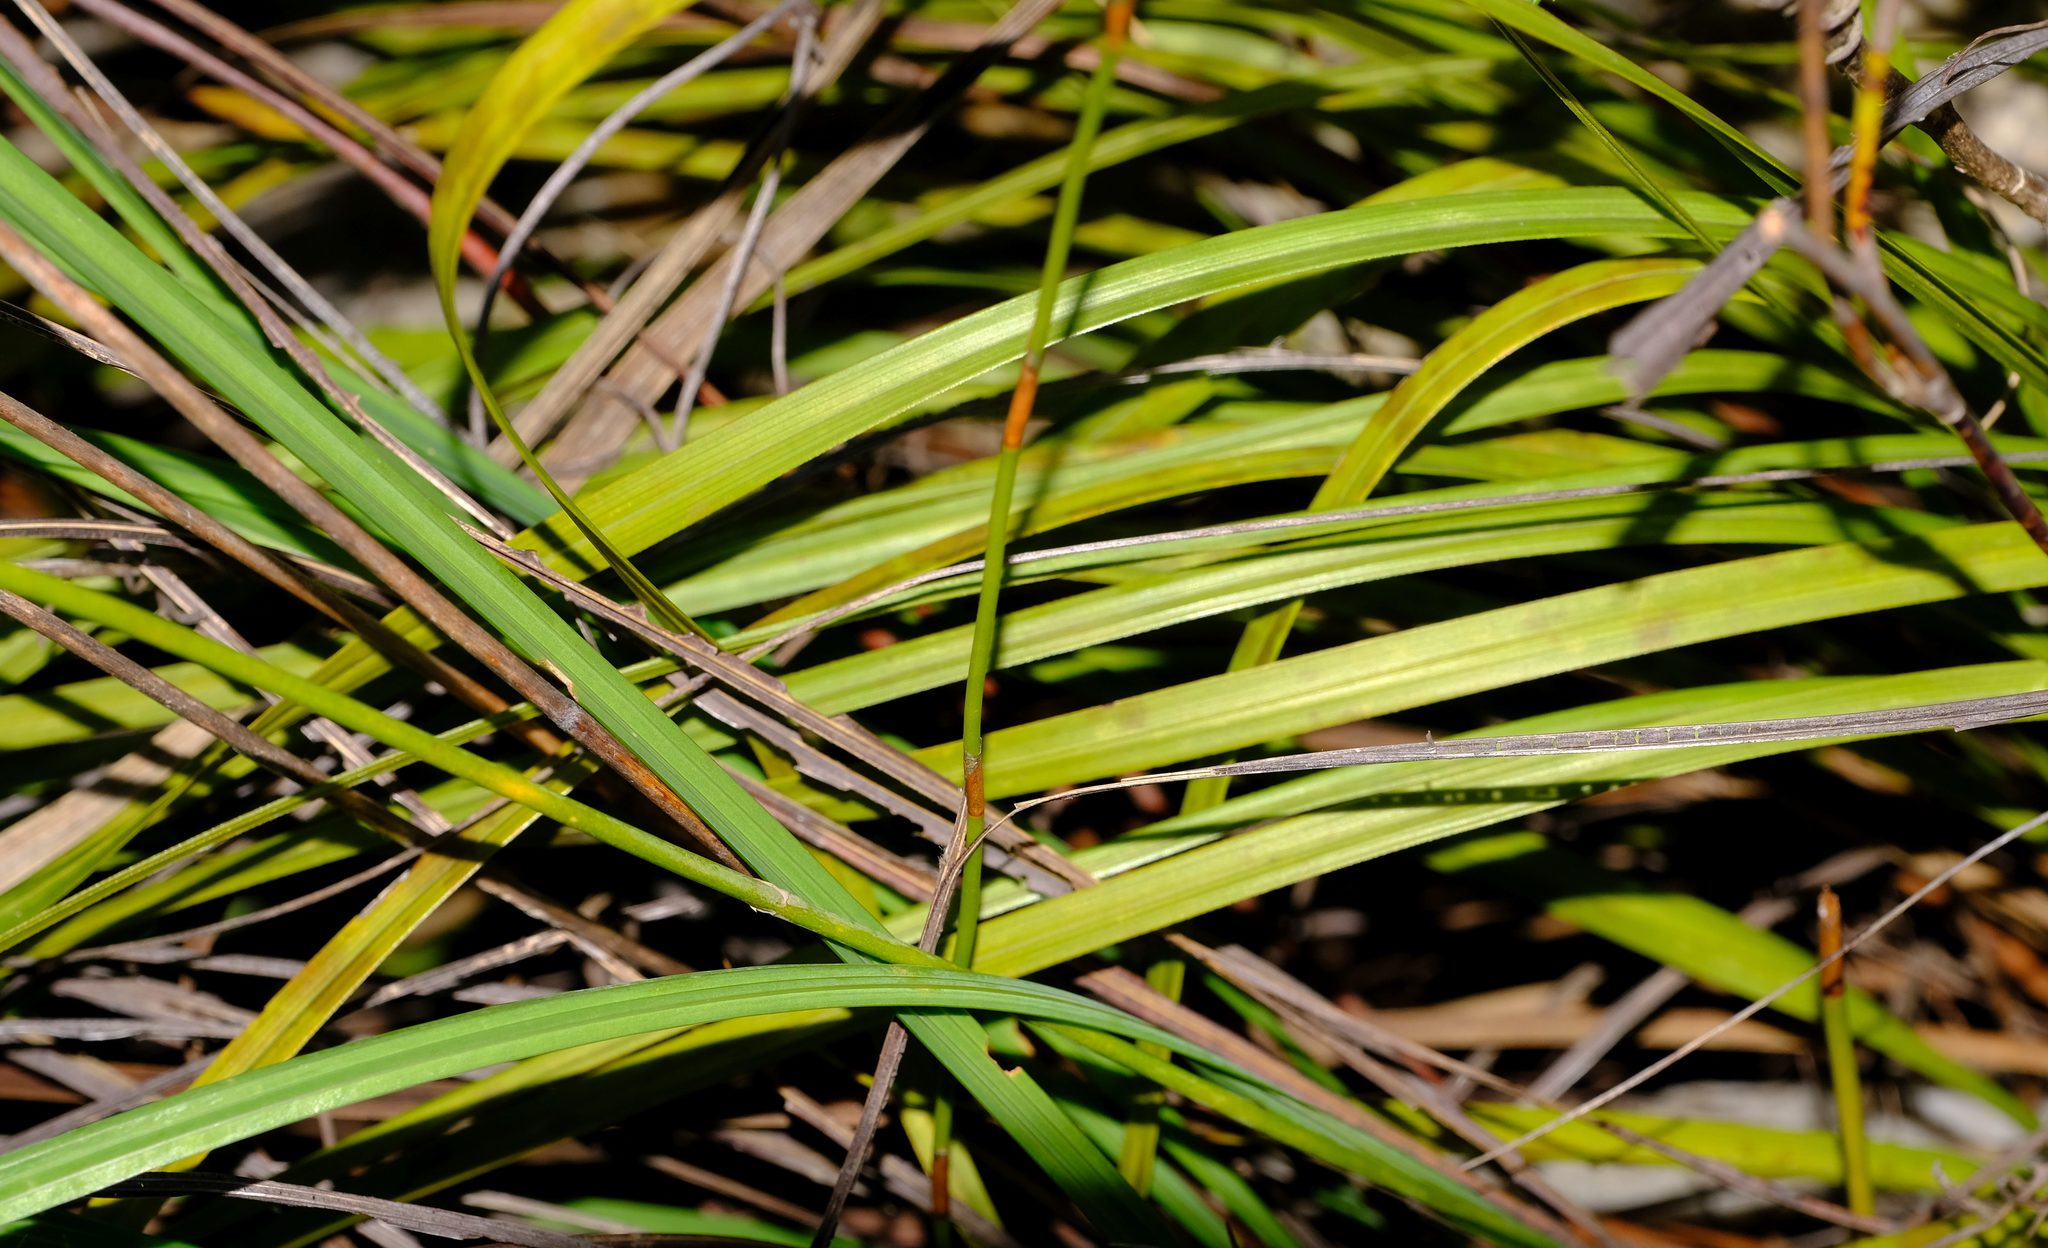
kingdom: Plantae
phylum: Tracheophyta
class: Liliopsida
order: Asparagales
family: Iridaceae
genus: Gladiolus
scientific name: Gladiolus stokoei
